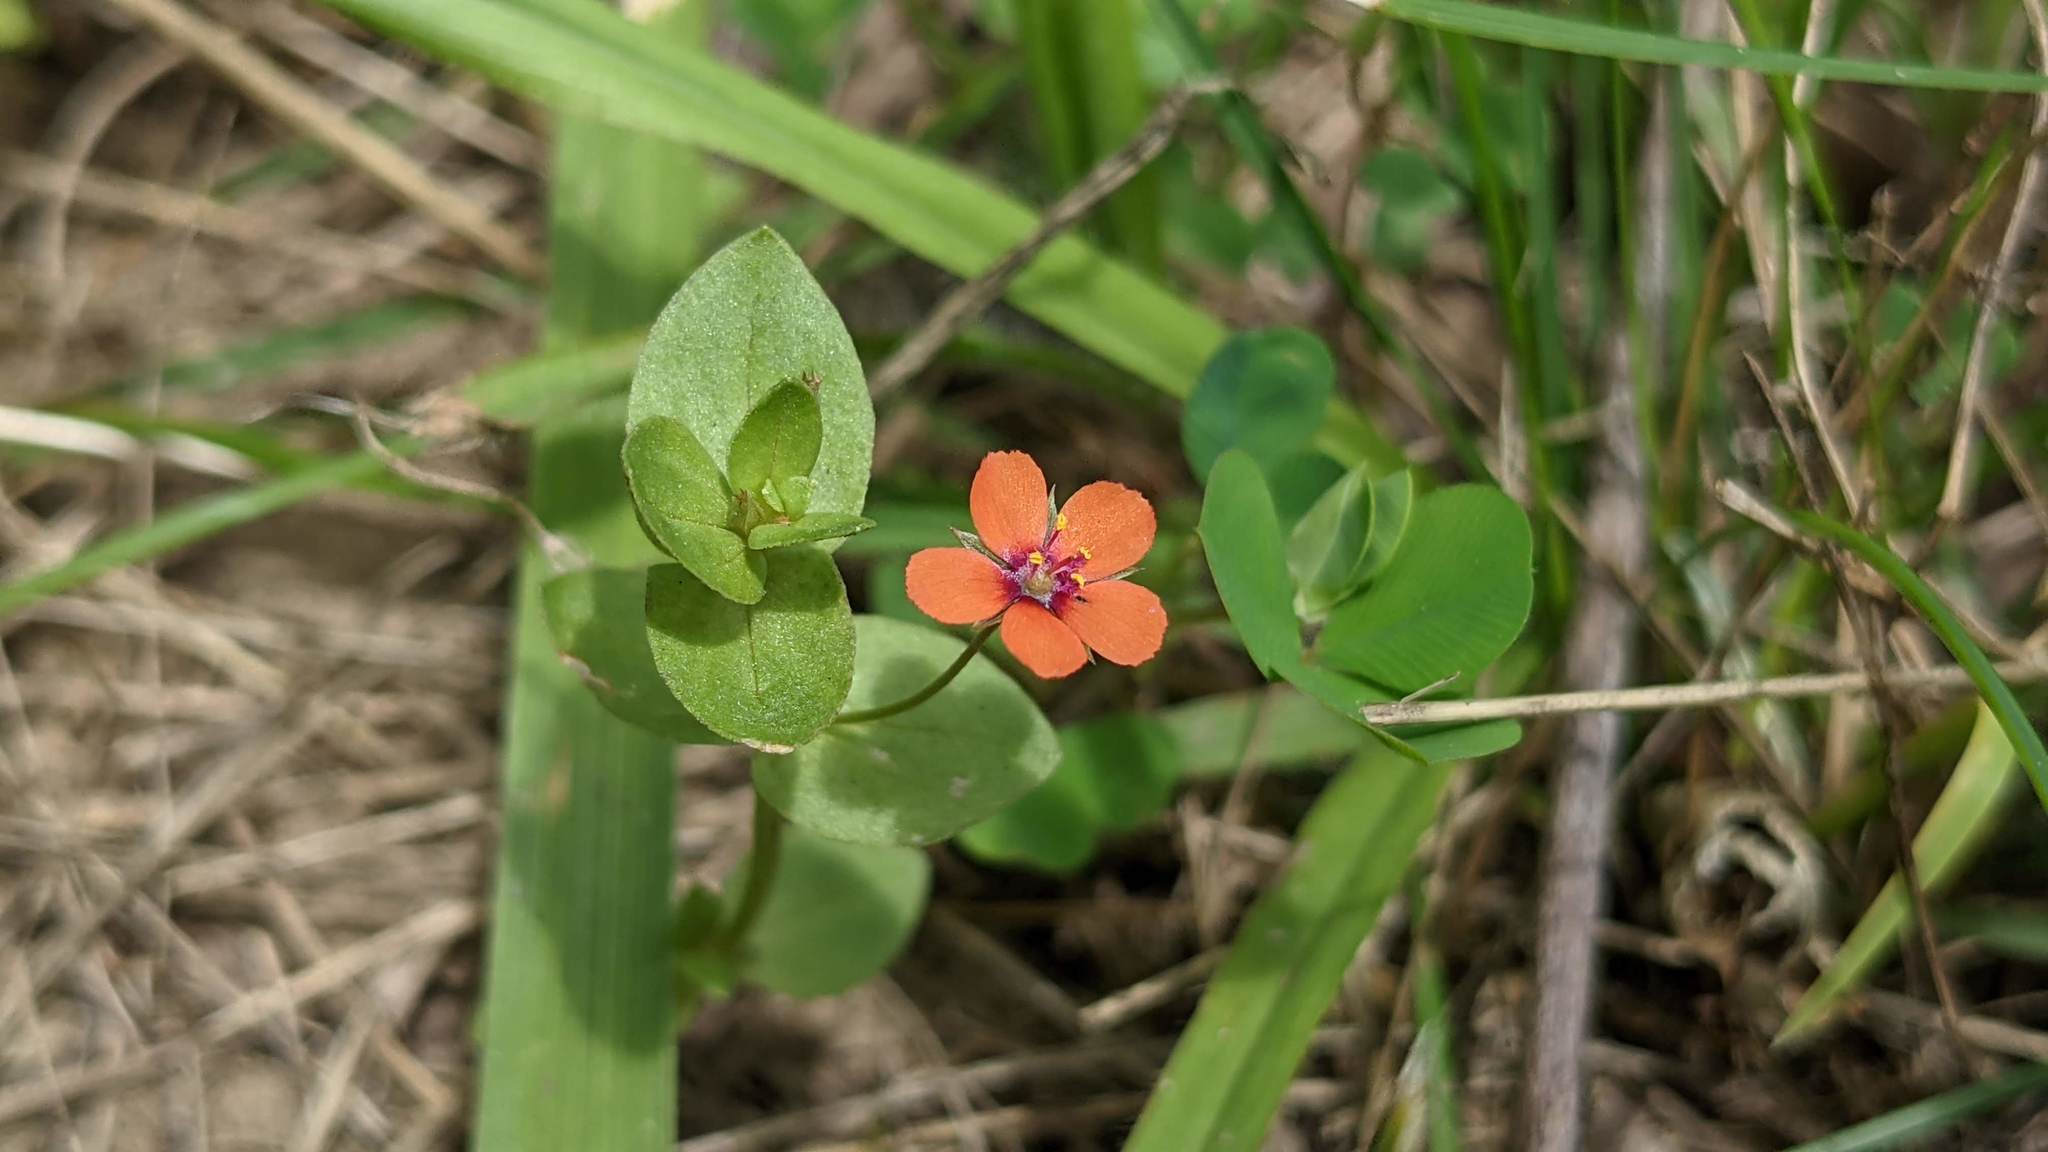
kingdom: Plantae
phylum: Tracheophyta
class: Magnoliopsida
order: Ericales
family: Primulaceae
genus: Lysimachia
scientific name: Lysimachia arvensis
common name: Scarlet pimpernel
